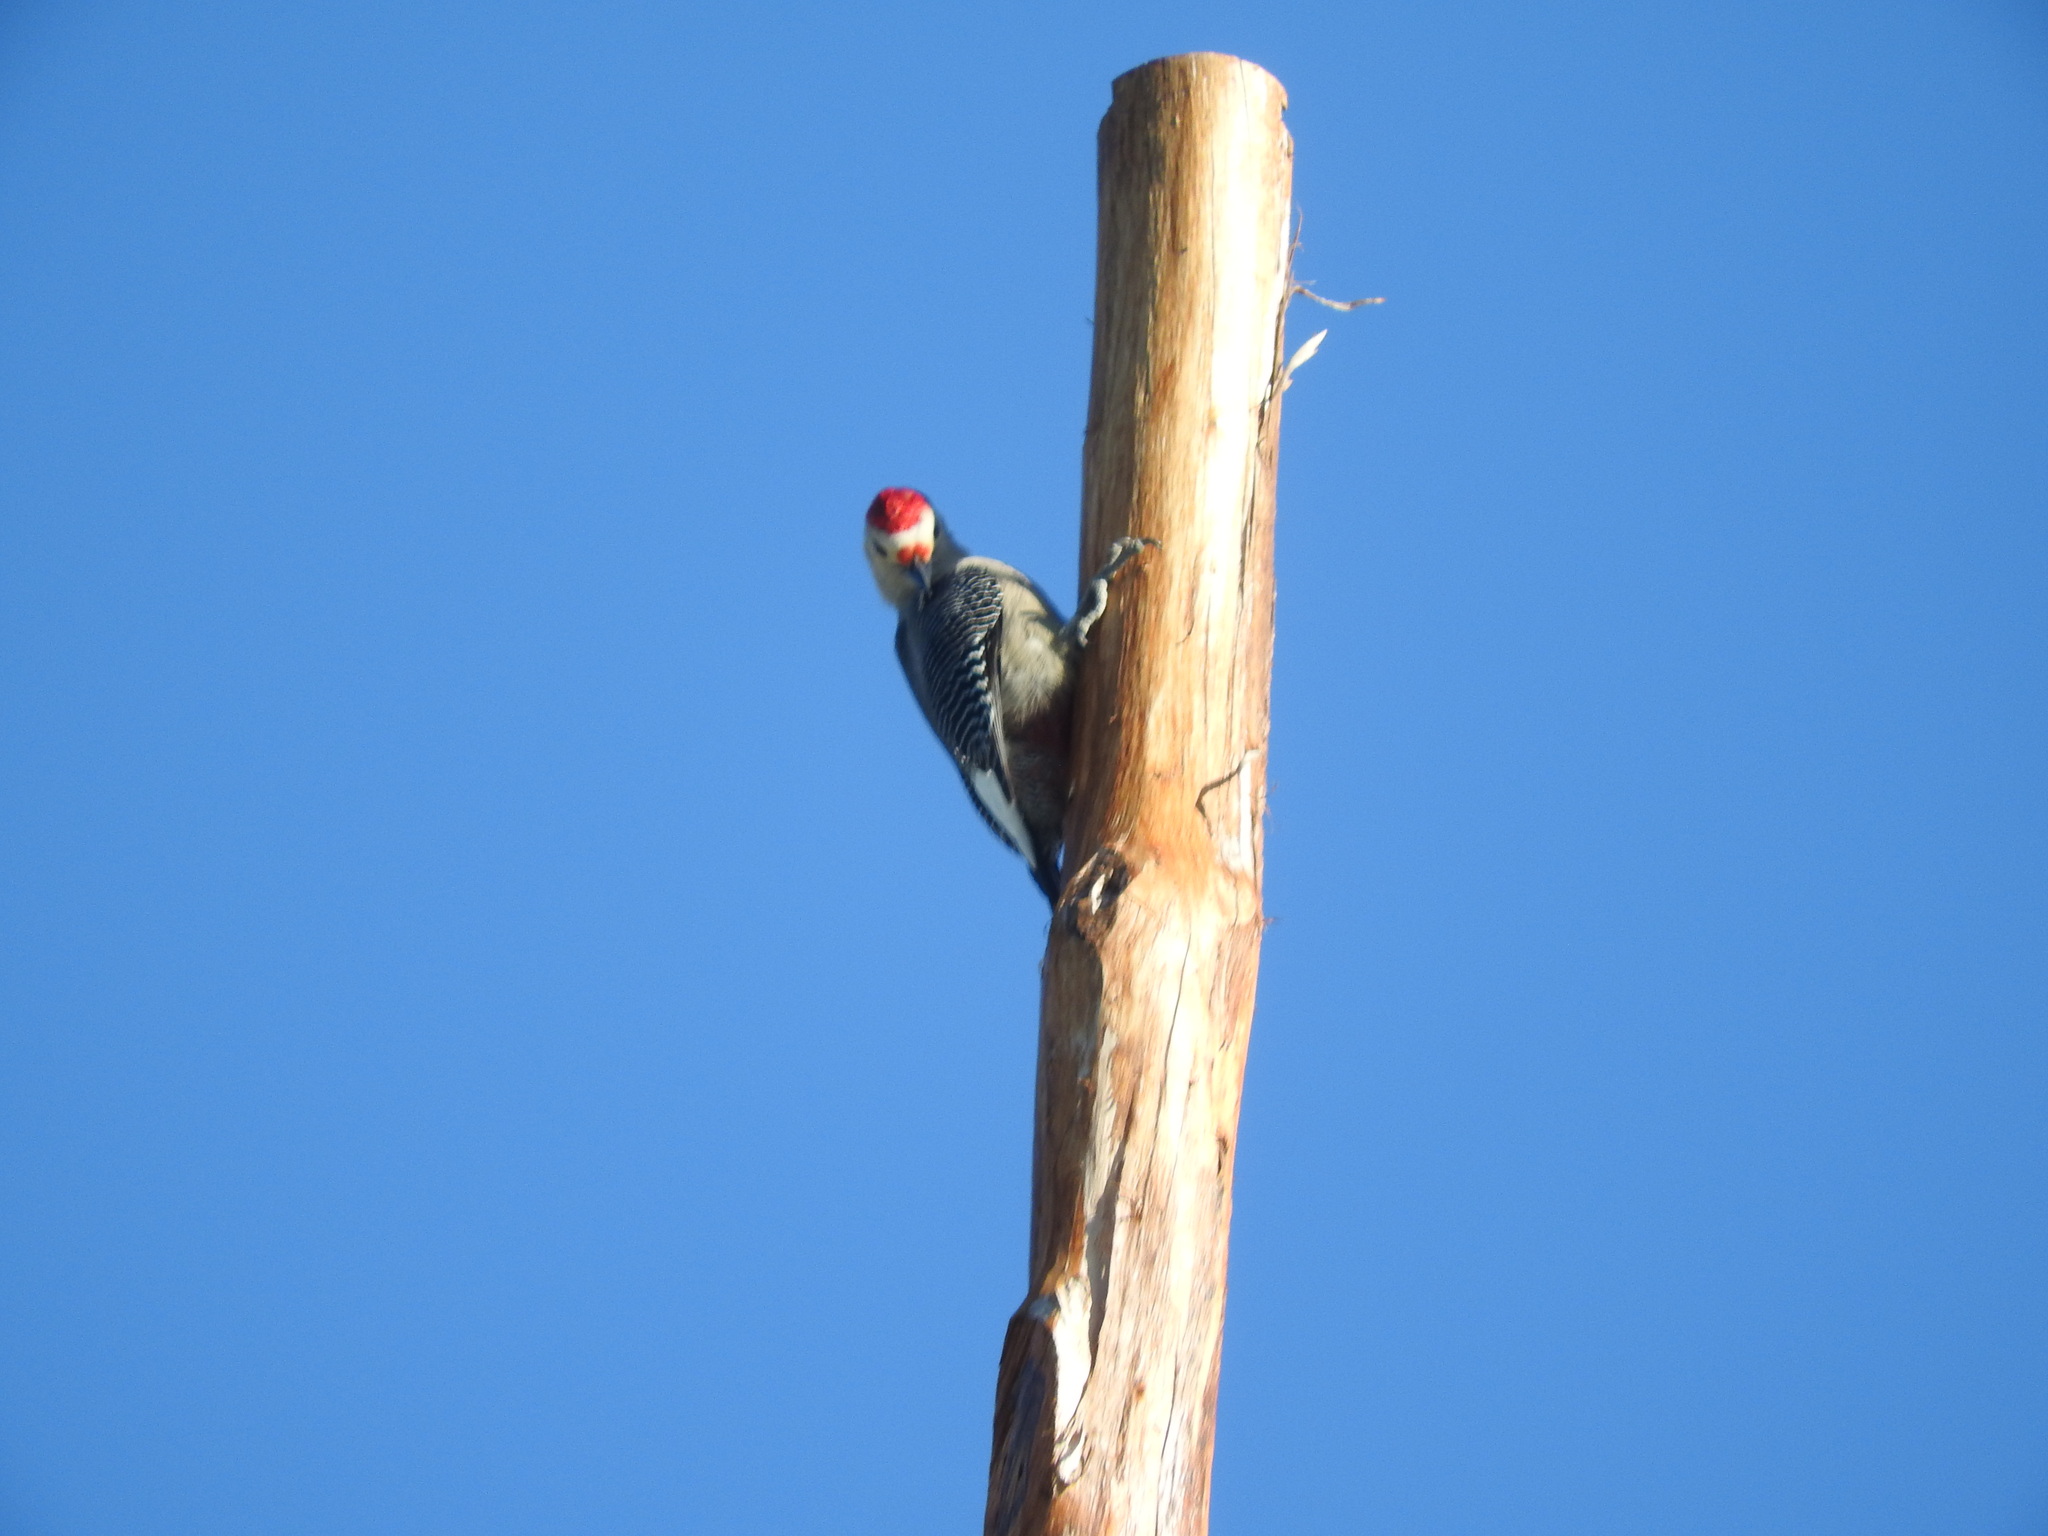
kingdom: Animalia
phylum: Chordata
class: Aves
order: Piciformes
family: Picidae
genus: Melanerpes
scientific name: Melanerpes aurifrons
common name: Golden-fronted woodpecker
